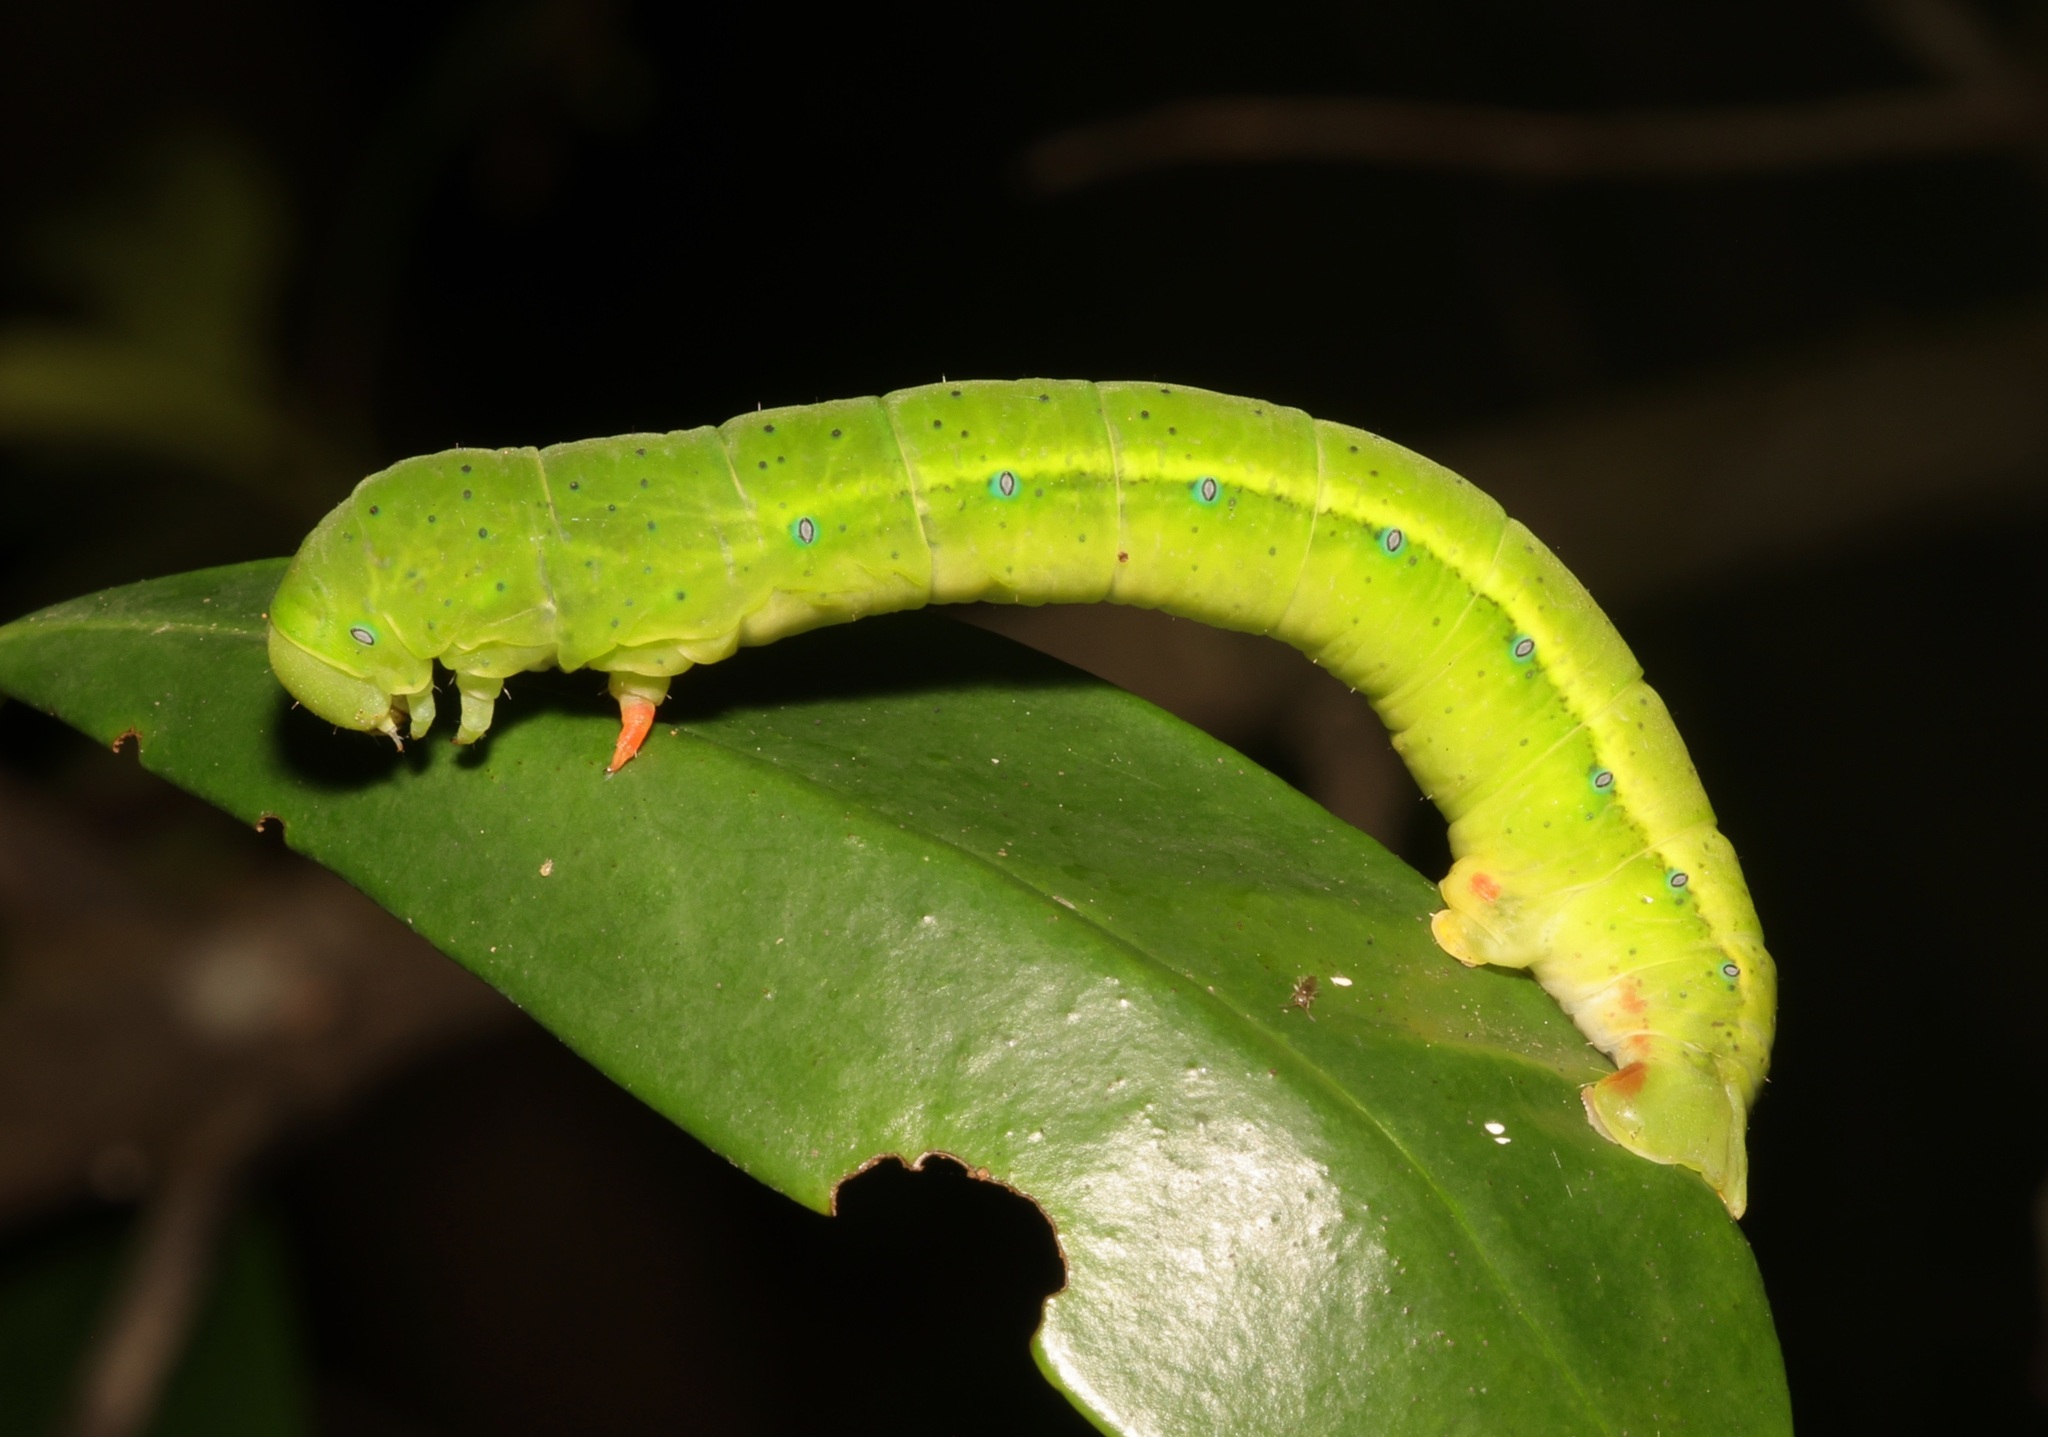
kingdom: Animalia
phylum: Arthropoda
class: Insecta
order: Lepidoptera
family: Geometridae
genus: Dysphania
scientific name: Dysphania militaris
